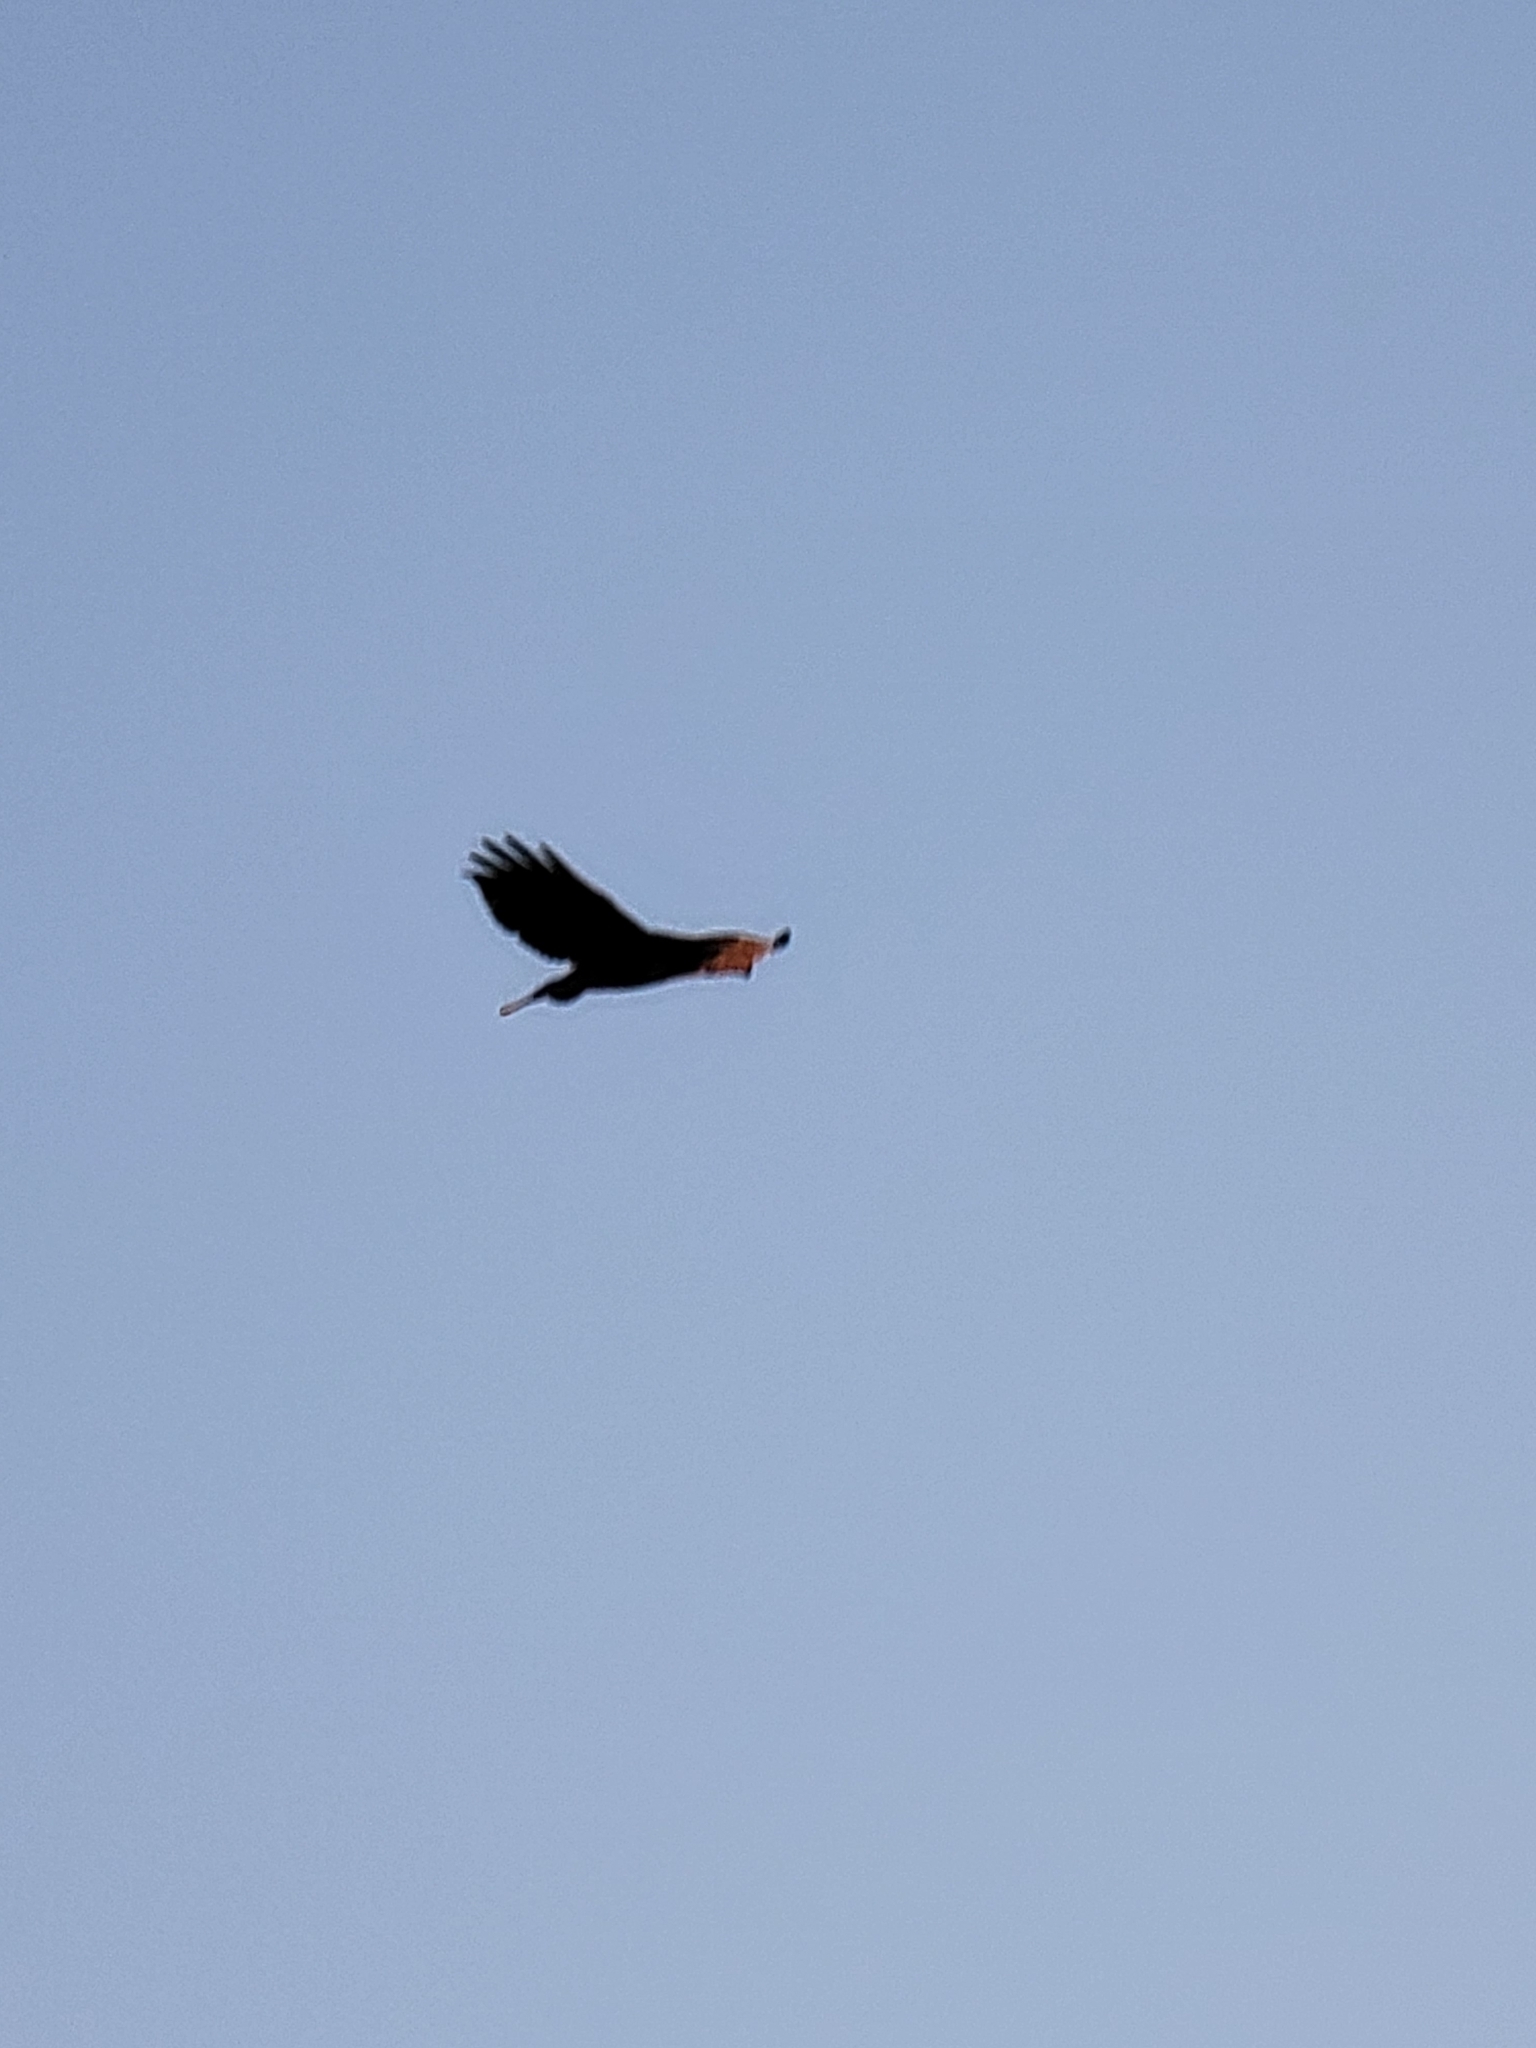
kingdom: Animalia
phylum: Chordata
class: Aves
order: Accipitriformes
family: Accipitridae
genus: Buteo
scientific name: Buteo jamaicensis
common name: Red-tailed hawk
